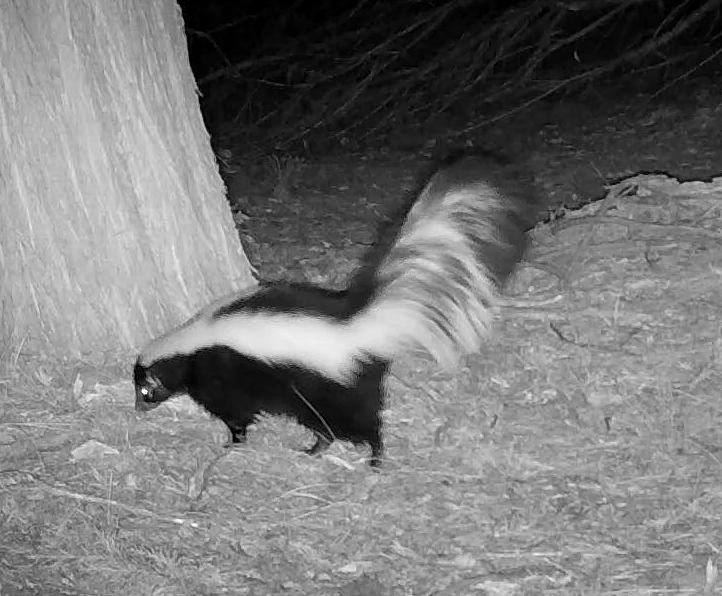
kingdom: Animalia
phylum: Chordata
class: Mammalia
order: Carnivora
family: Mephitidae
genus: Mephitis
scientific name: Mephitis mephitis
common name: Striped skunk
